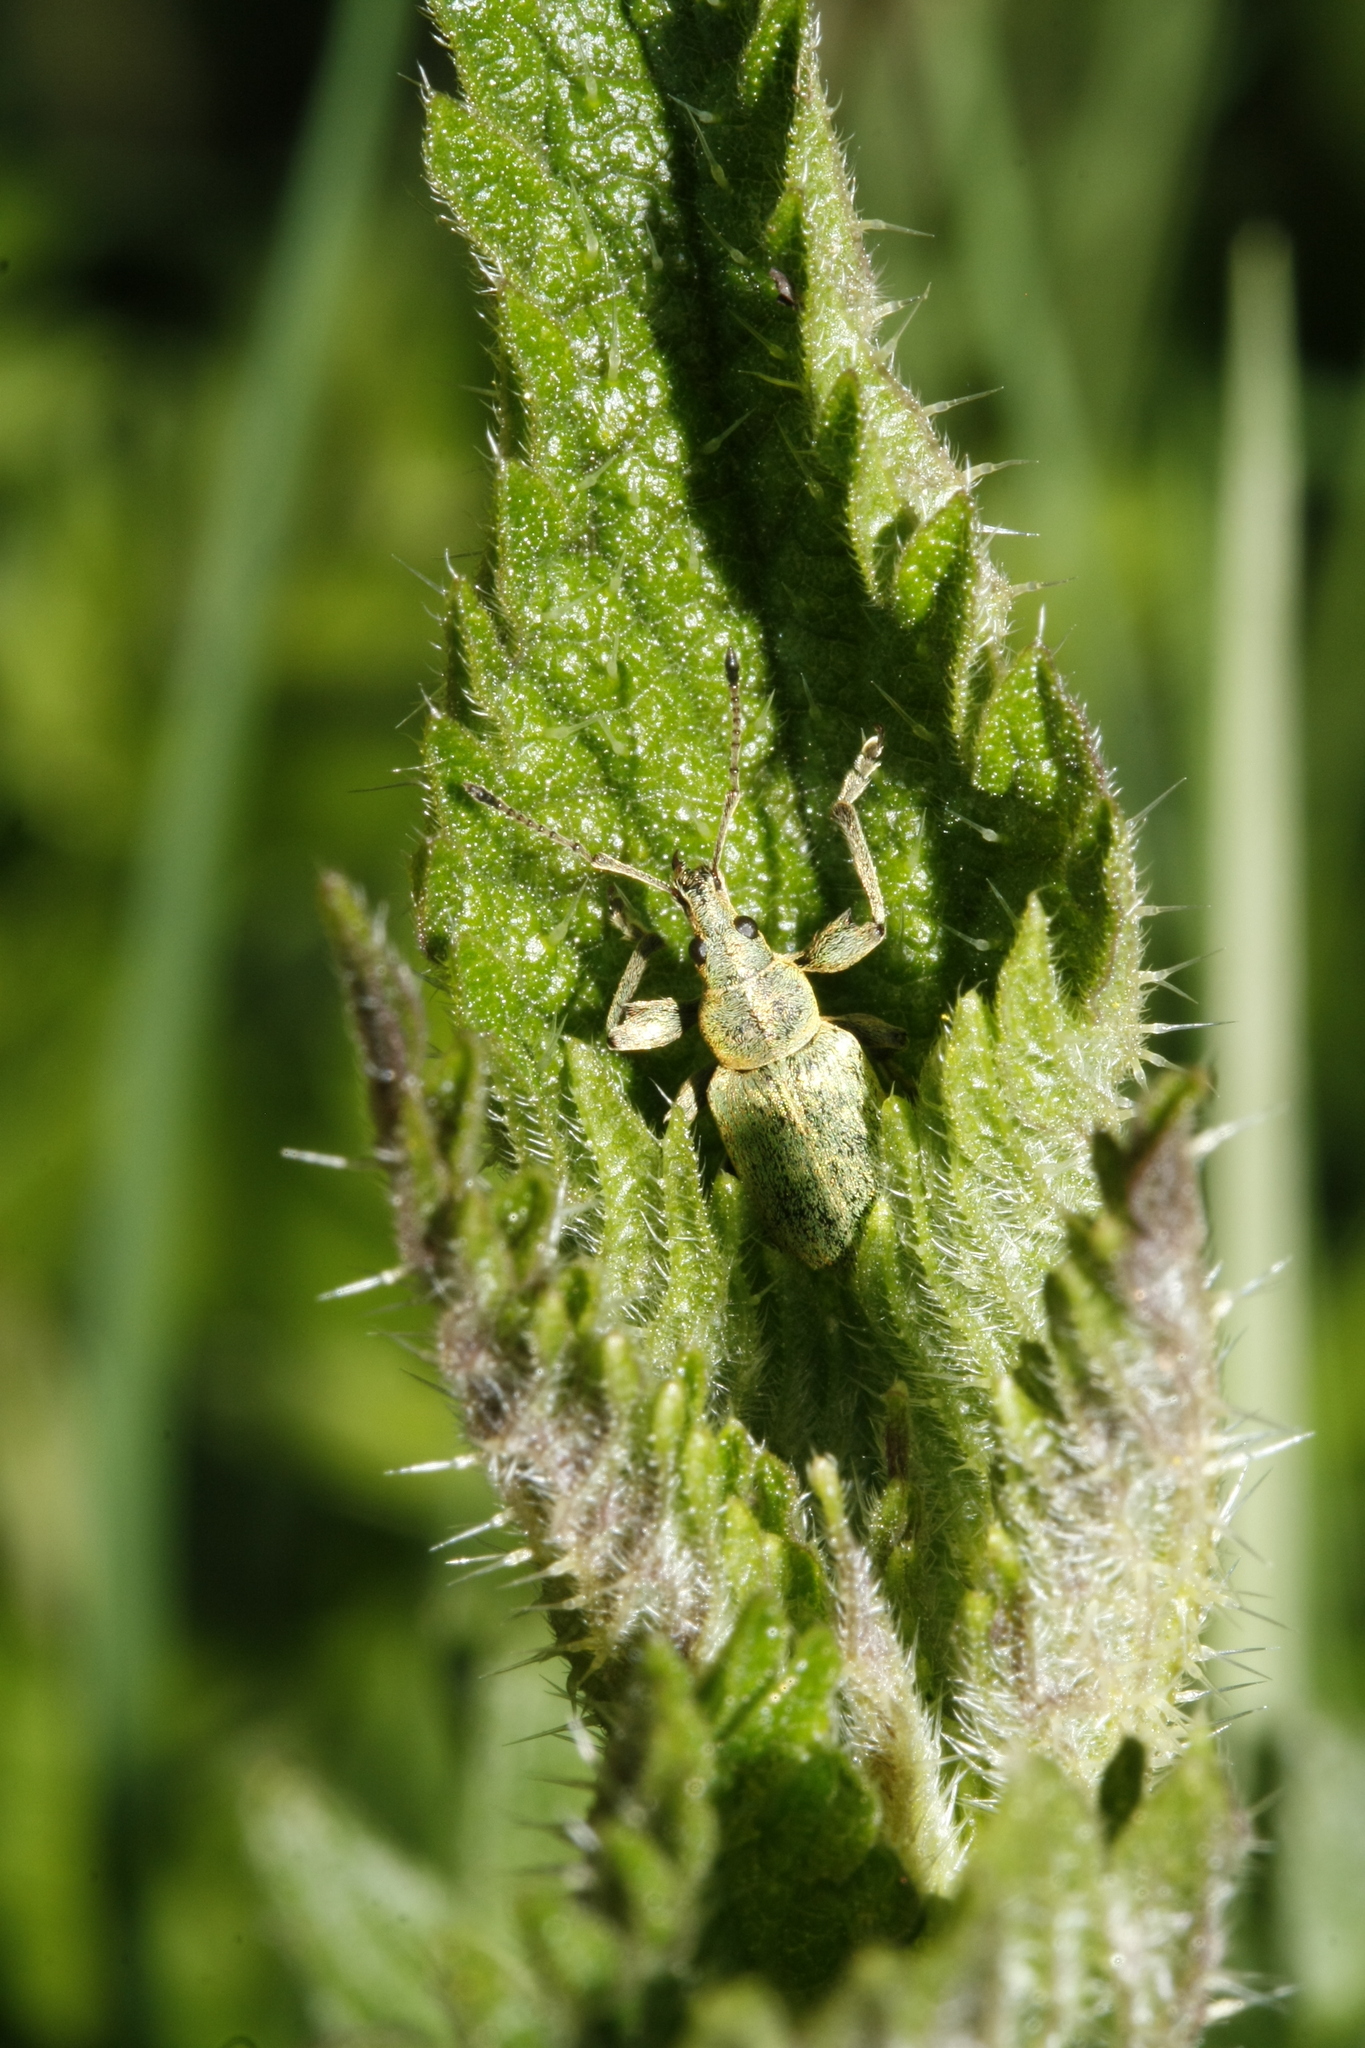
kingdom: Animalia
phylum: Arthropoda
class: Insecta
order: Coleoptera
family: Curculionidae
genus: Phyllobius
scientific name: Phyllobius pomaceus
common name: Green nettle weevil
